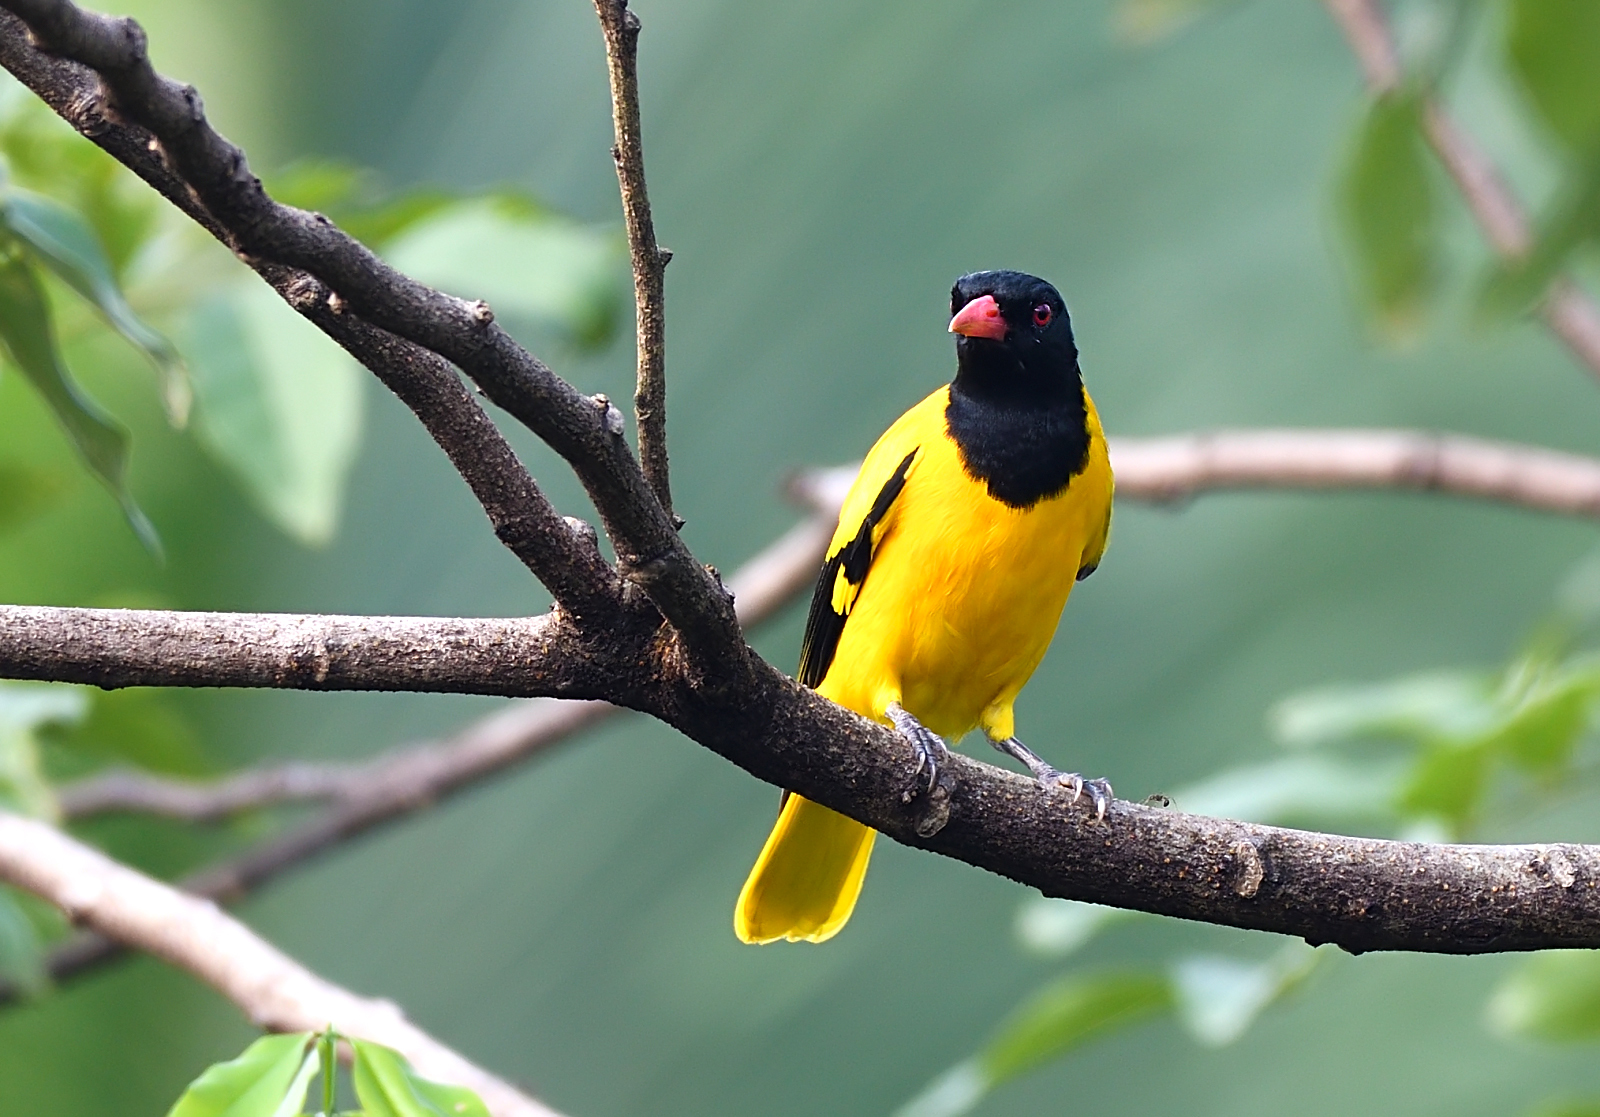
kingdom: Animalia
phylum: Chordata
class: Aves
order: Passeriformes
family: Oriolidae
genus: Oriolus
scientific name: Oriolus xanthornus
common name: Black-hooded oriole
